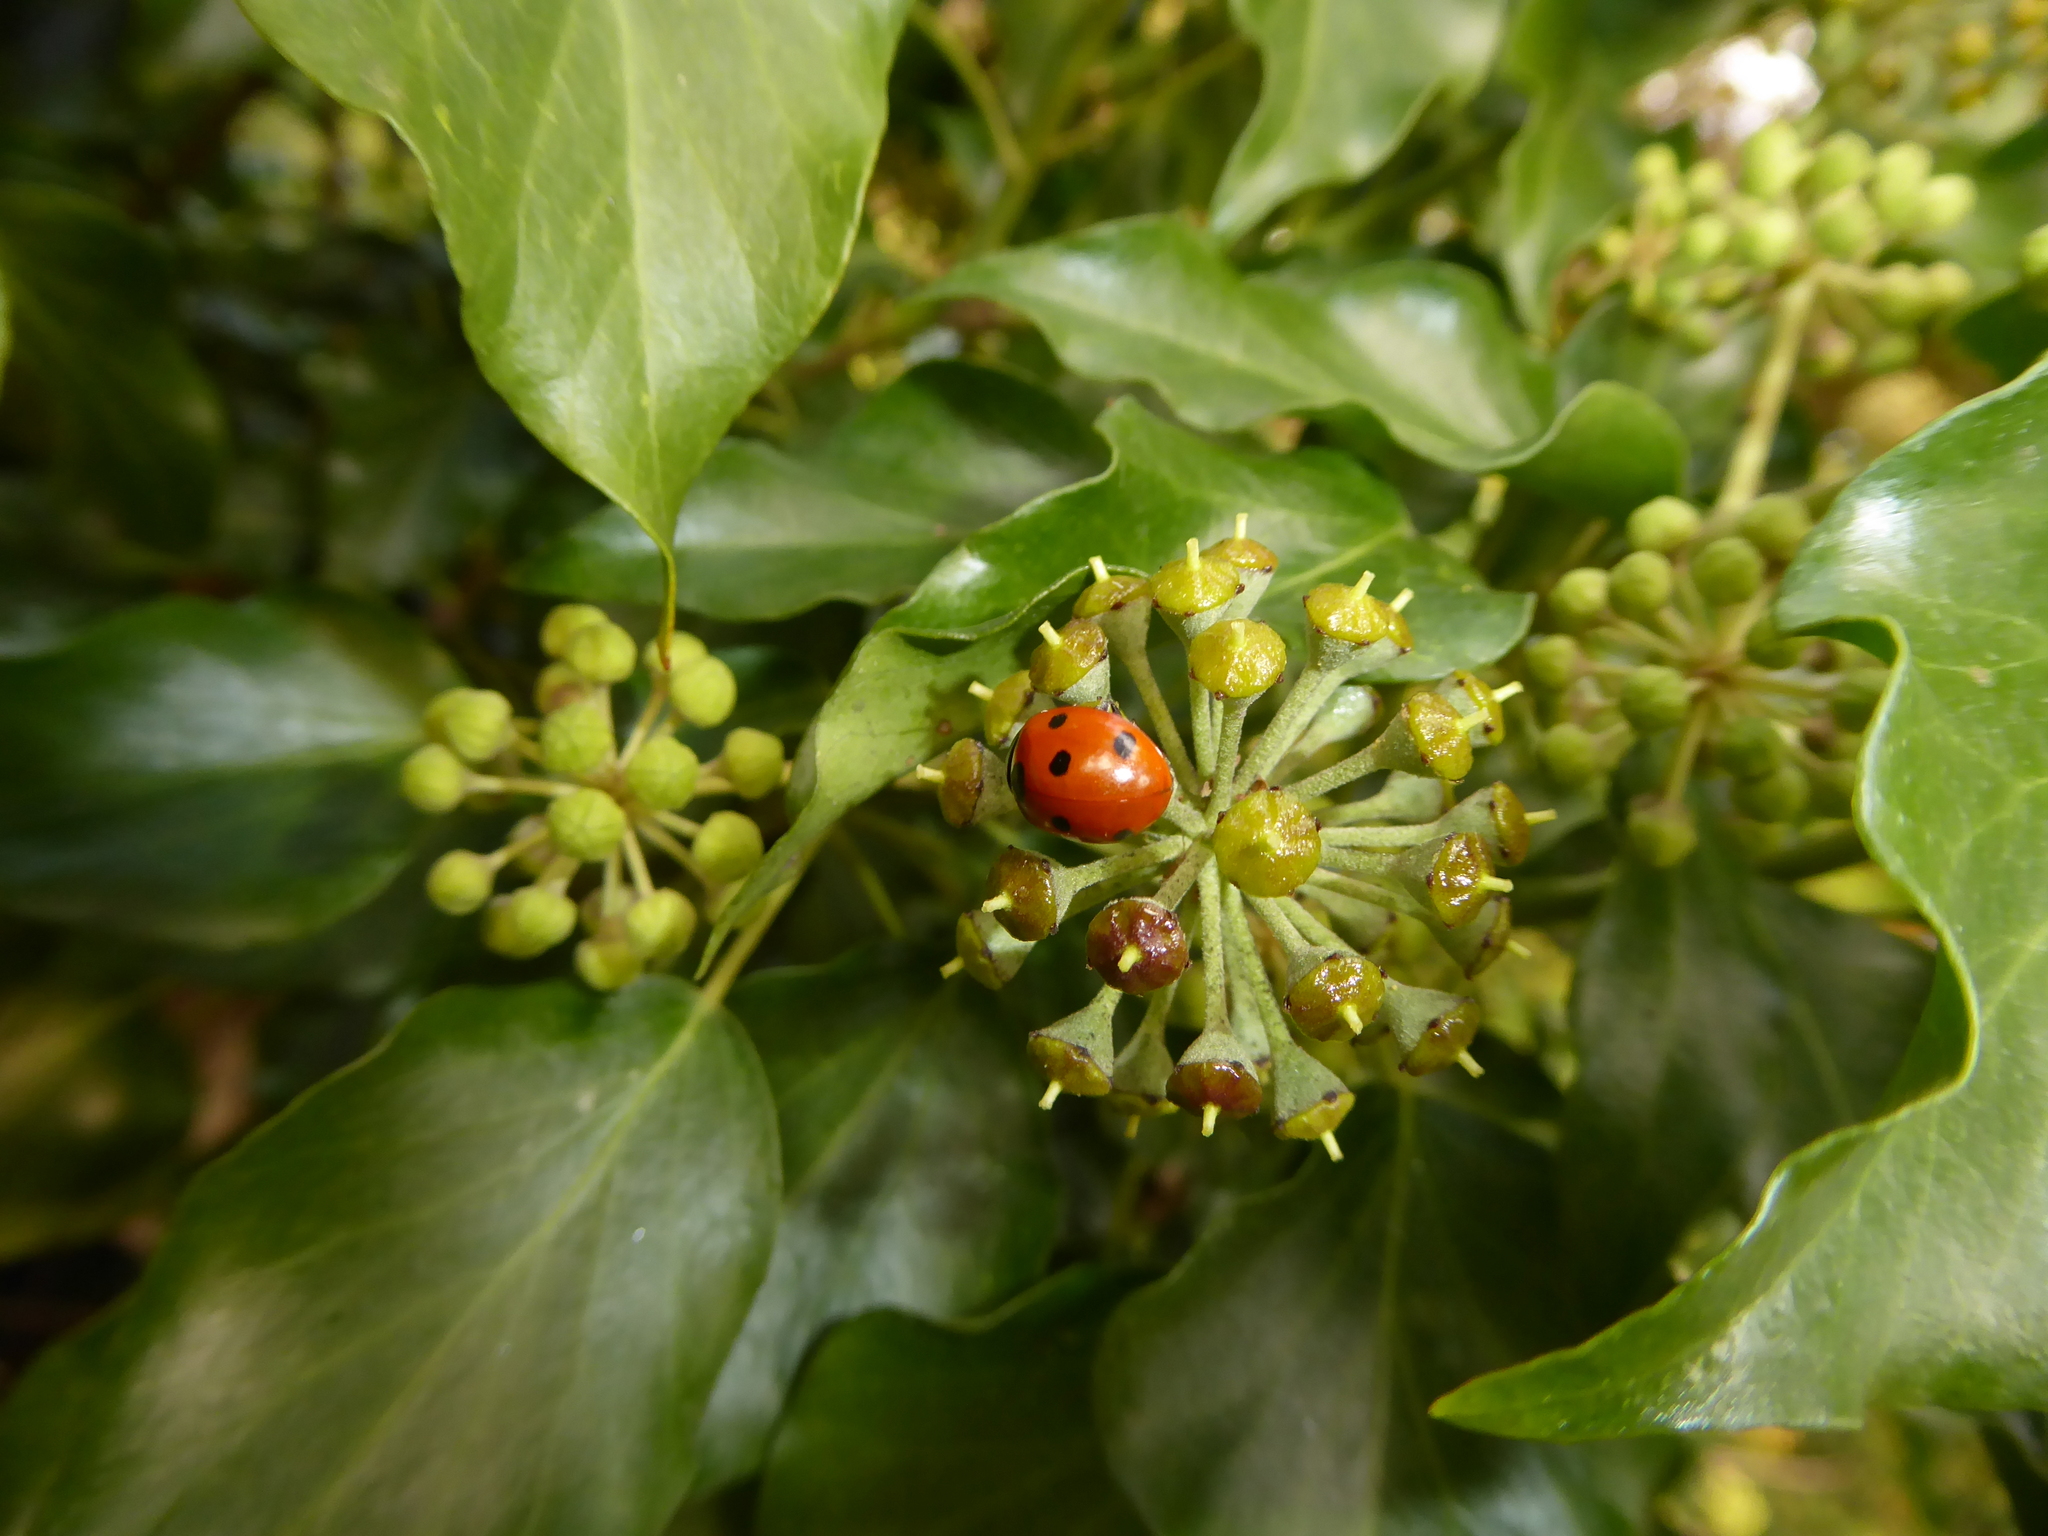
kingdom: Animalia
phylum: Arthropoda
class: Insecta
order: Coleoptera
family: Coccinellidae
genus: Coccinella
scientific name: Coccinella septempunctata
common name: Sevenspotted lady beetle
